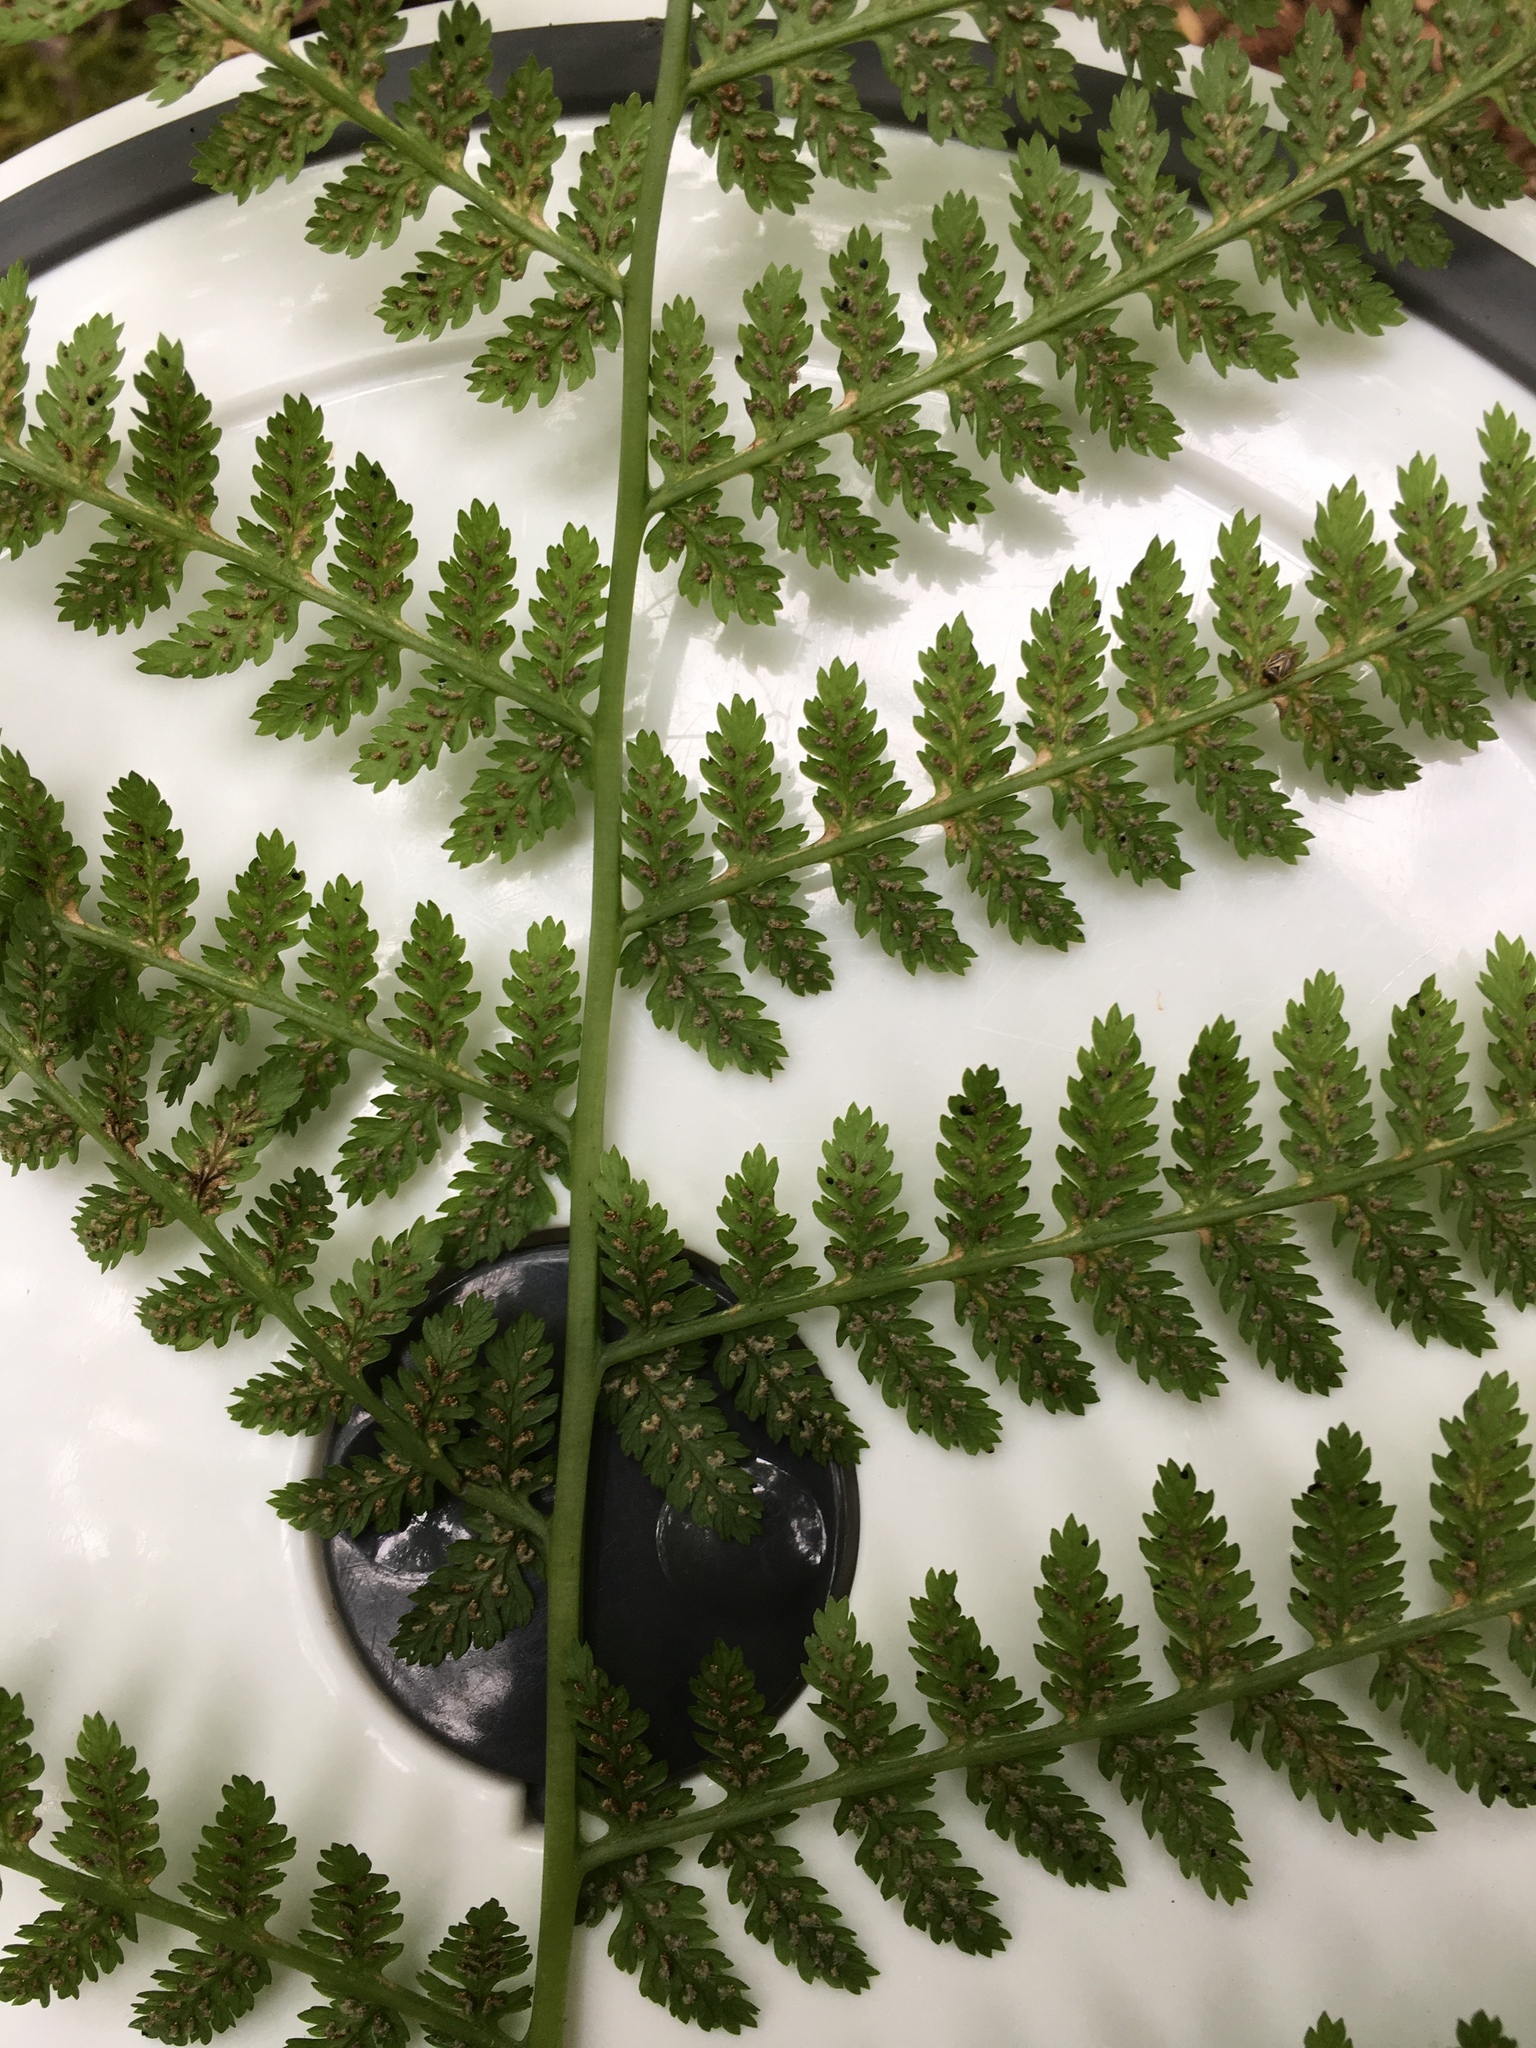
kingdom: Plantae
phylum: Tracheophyta
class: Polypodiopsida
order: Polypodiales
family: Athyriaceae
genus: Athyrium
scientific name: Athyrium filix-femina
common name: Lady fern
